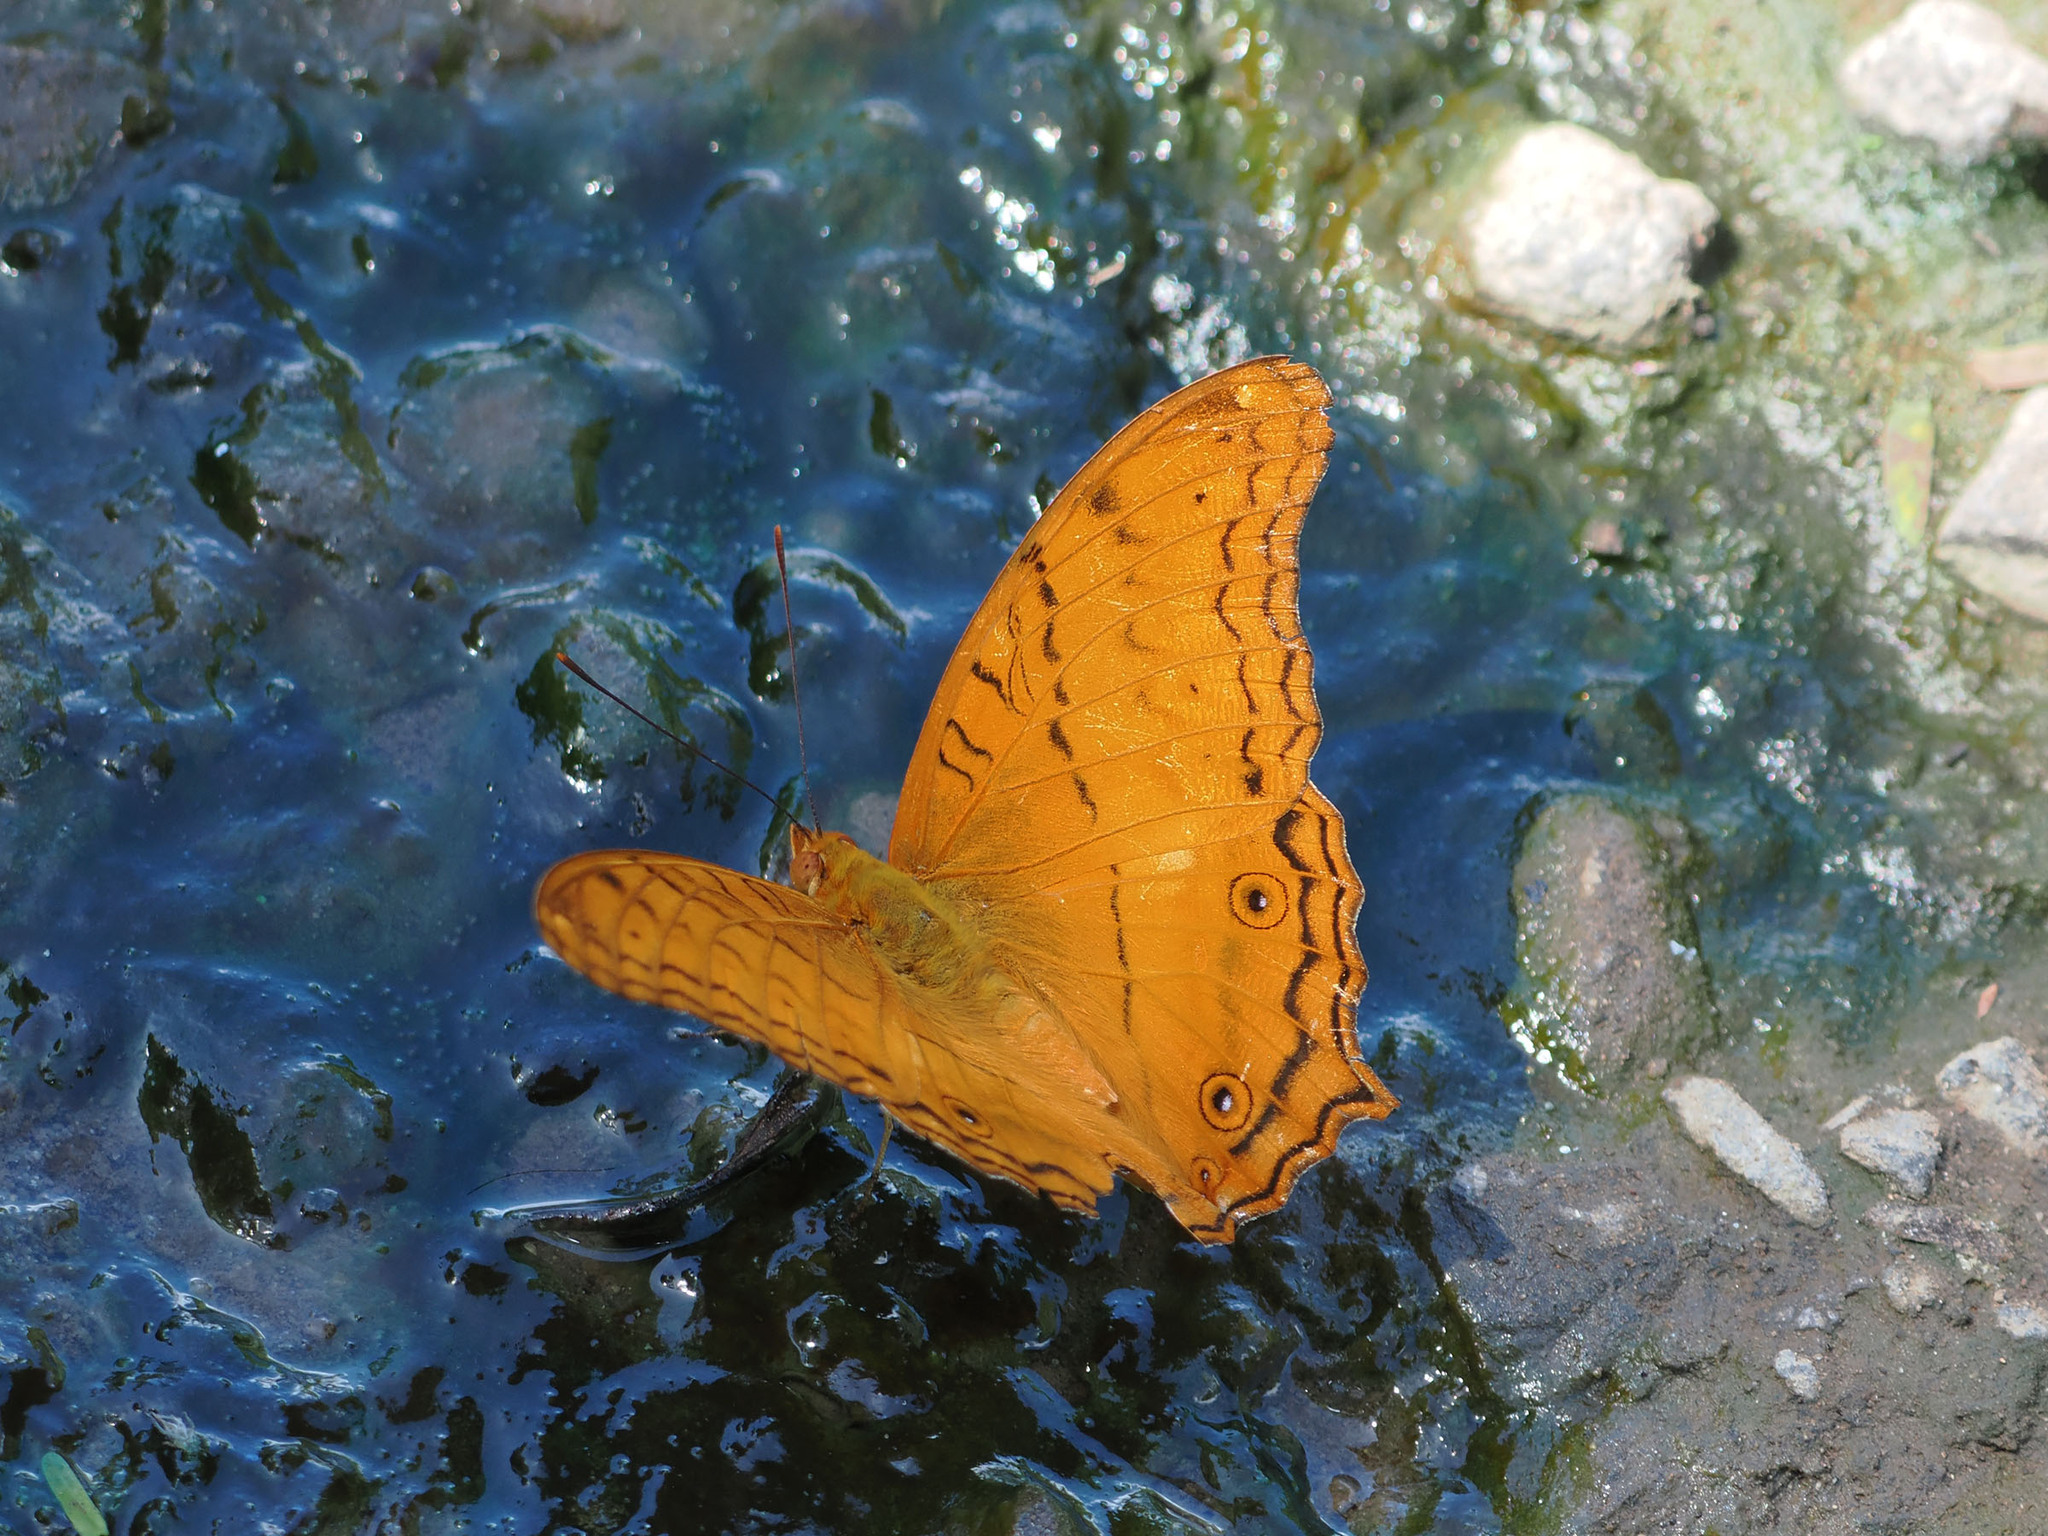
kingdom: Animalia
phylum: Arthropoda
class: Insecta
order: Lepidoptera
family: Nymphalidae
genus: Vindula
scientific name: Vindula deione
